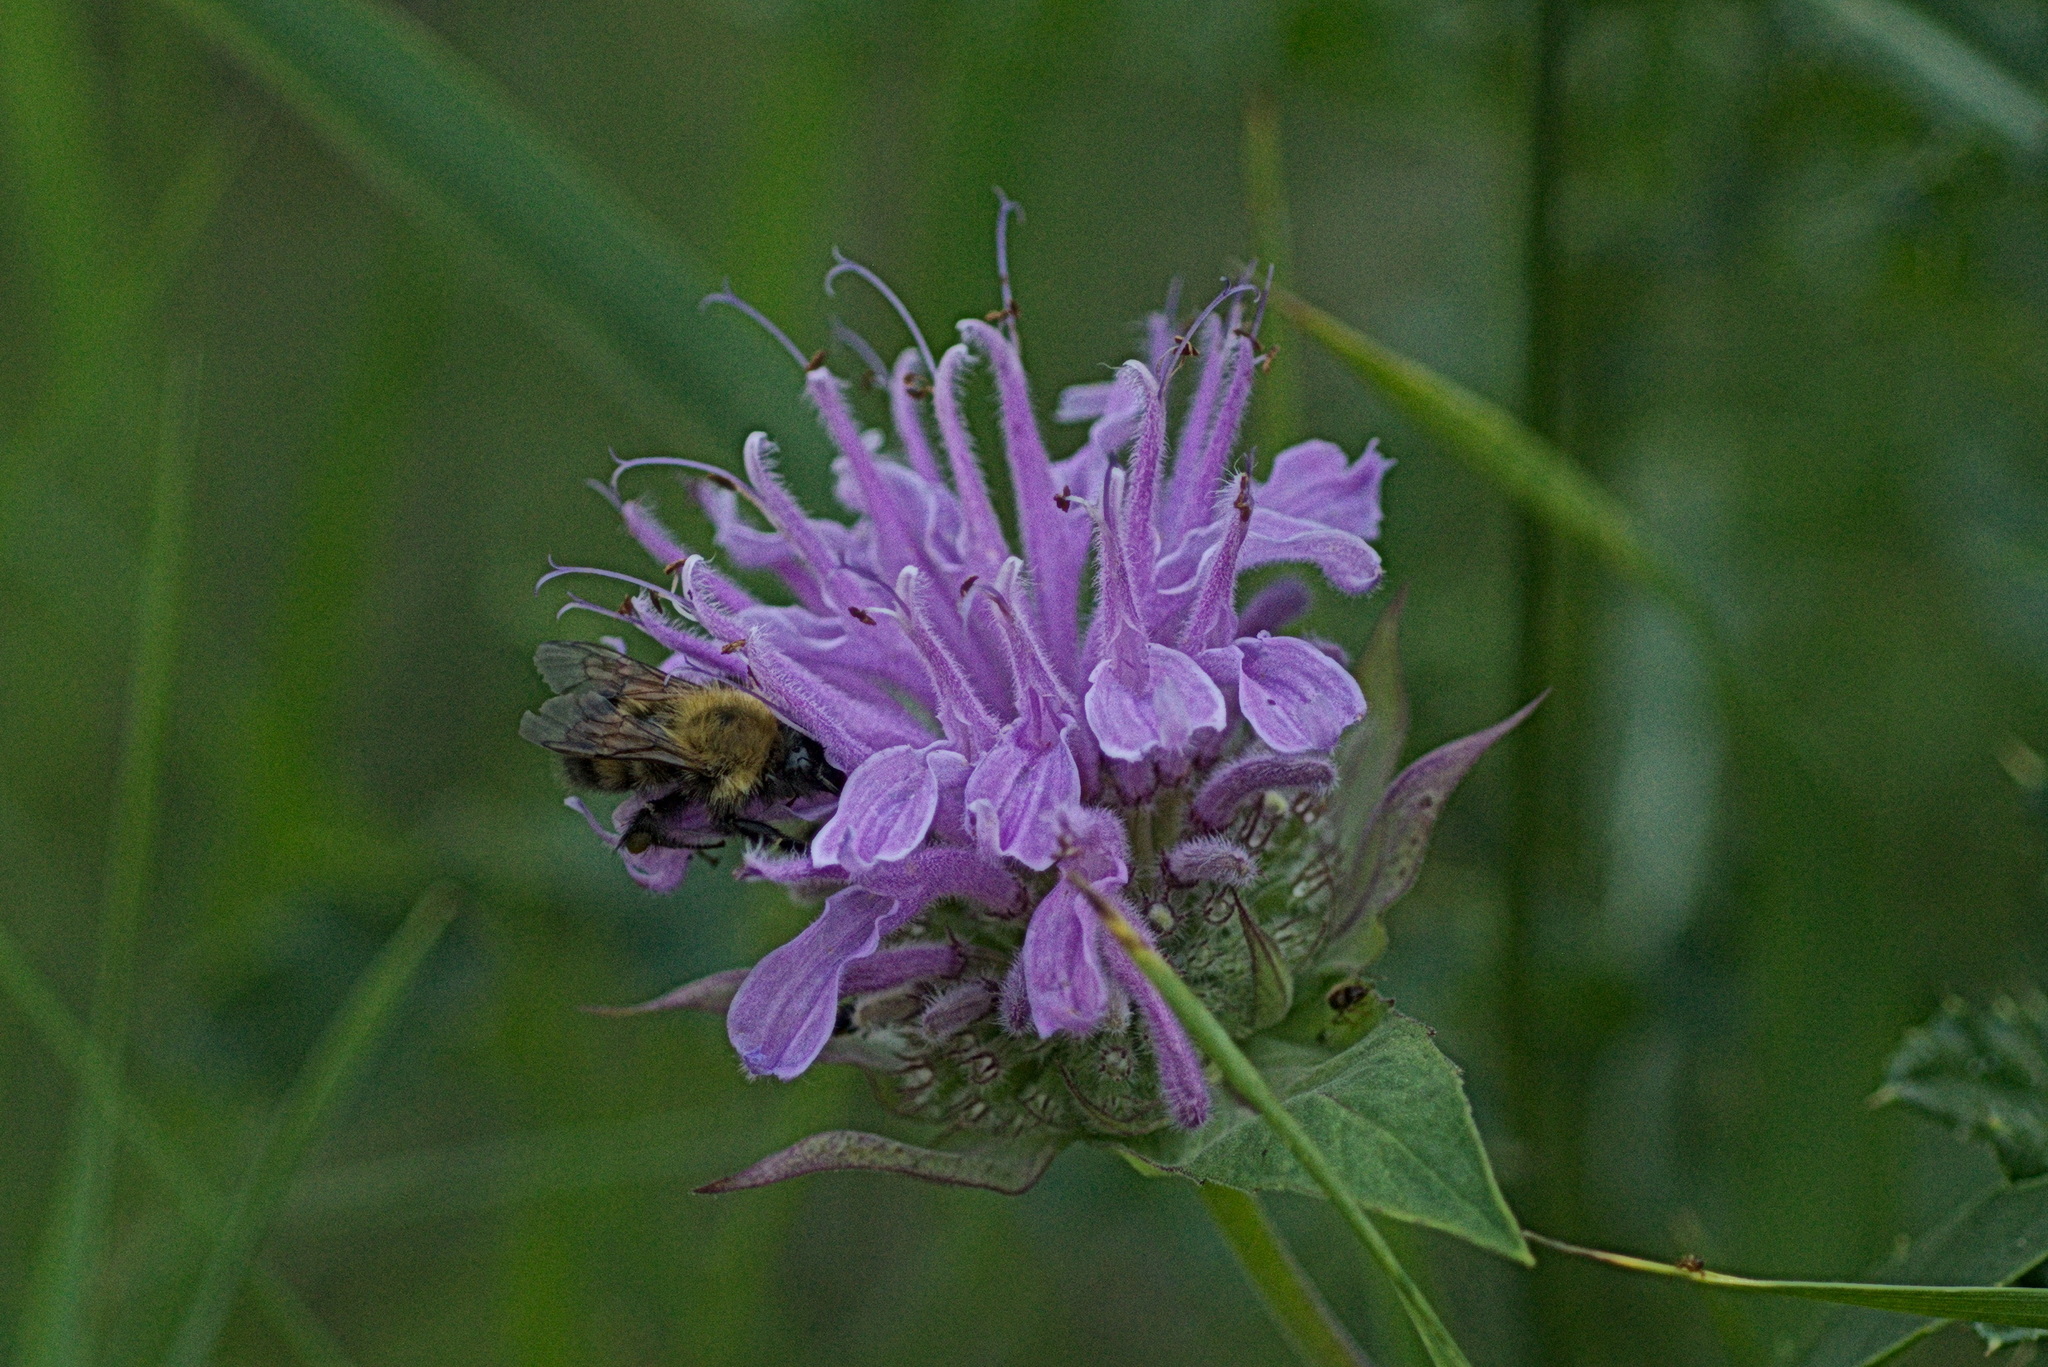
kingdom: Animalia
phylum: Arthropoda
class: Insecta
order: Hymenoptera
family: Apidae
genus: Bombus
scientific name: Bombus perplexus
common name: Confusing bumble bee
